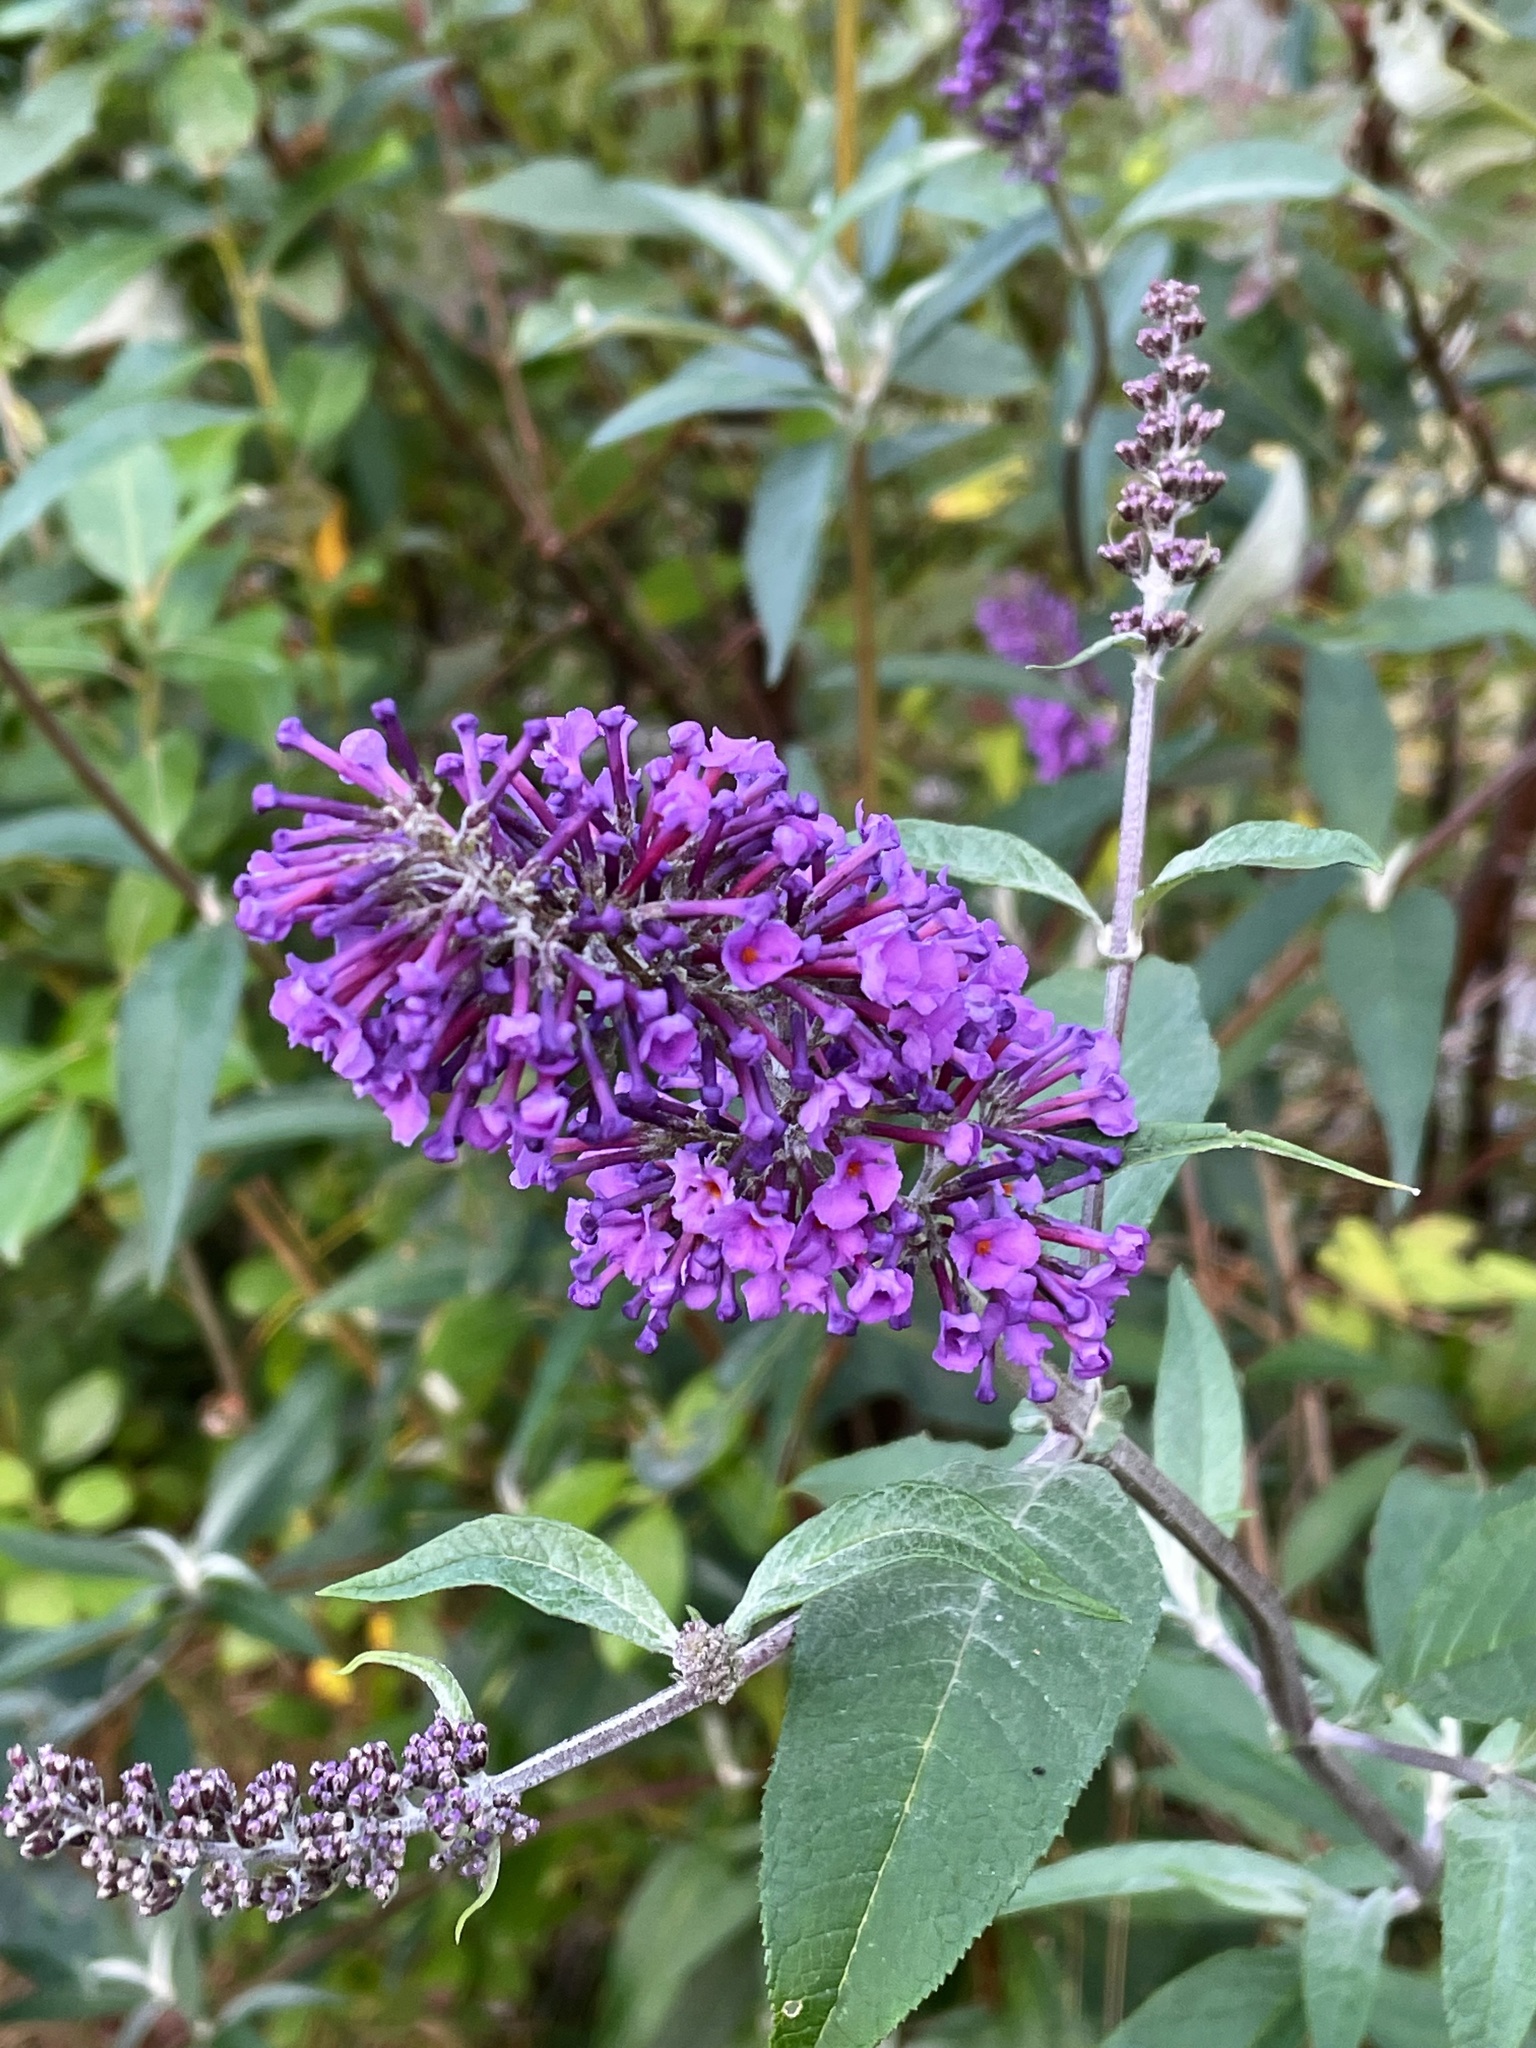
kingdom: Plantae
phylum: Tracheophyta
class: Magnoliopsida
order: Lamiales
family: Scrophulariaceae
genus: Buddleja
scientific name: Buddleja davidii
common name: Butterfly-bush
